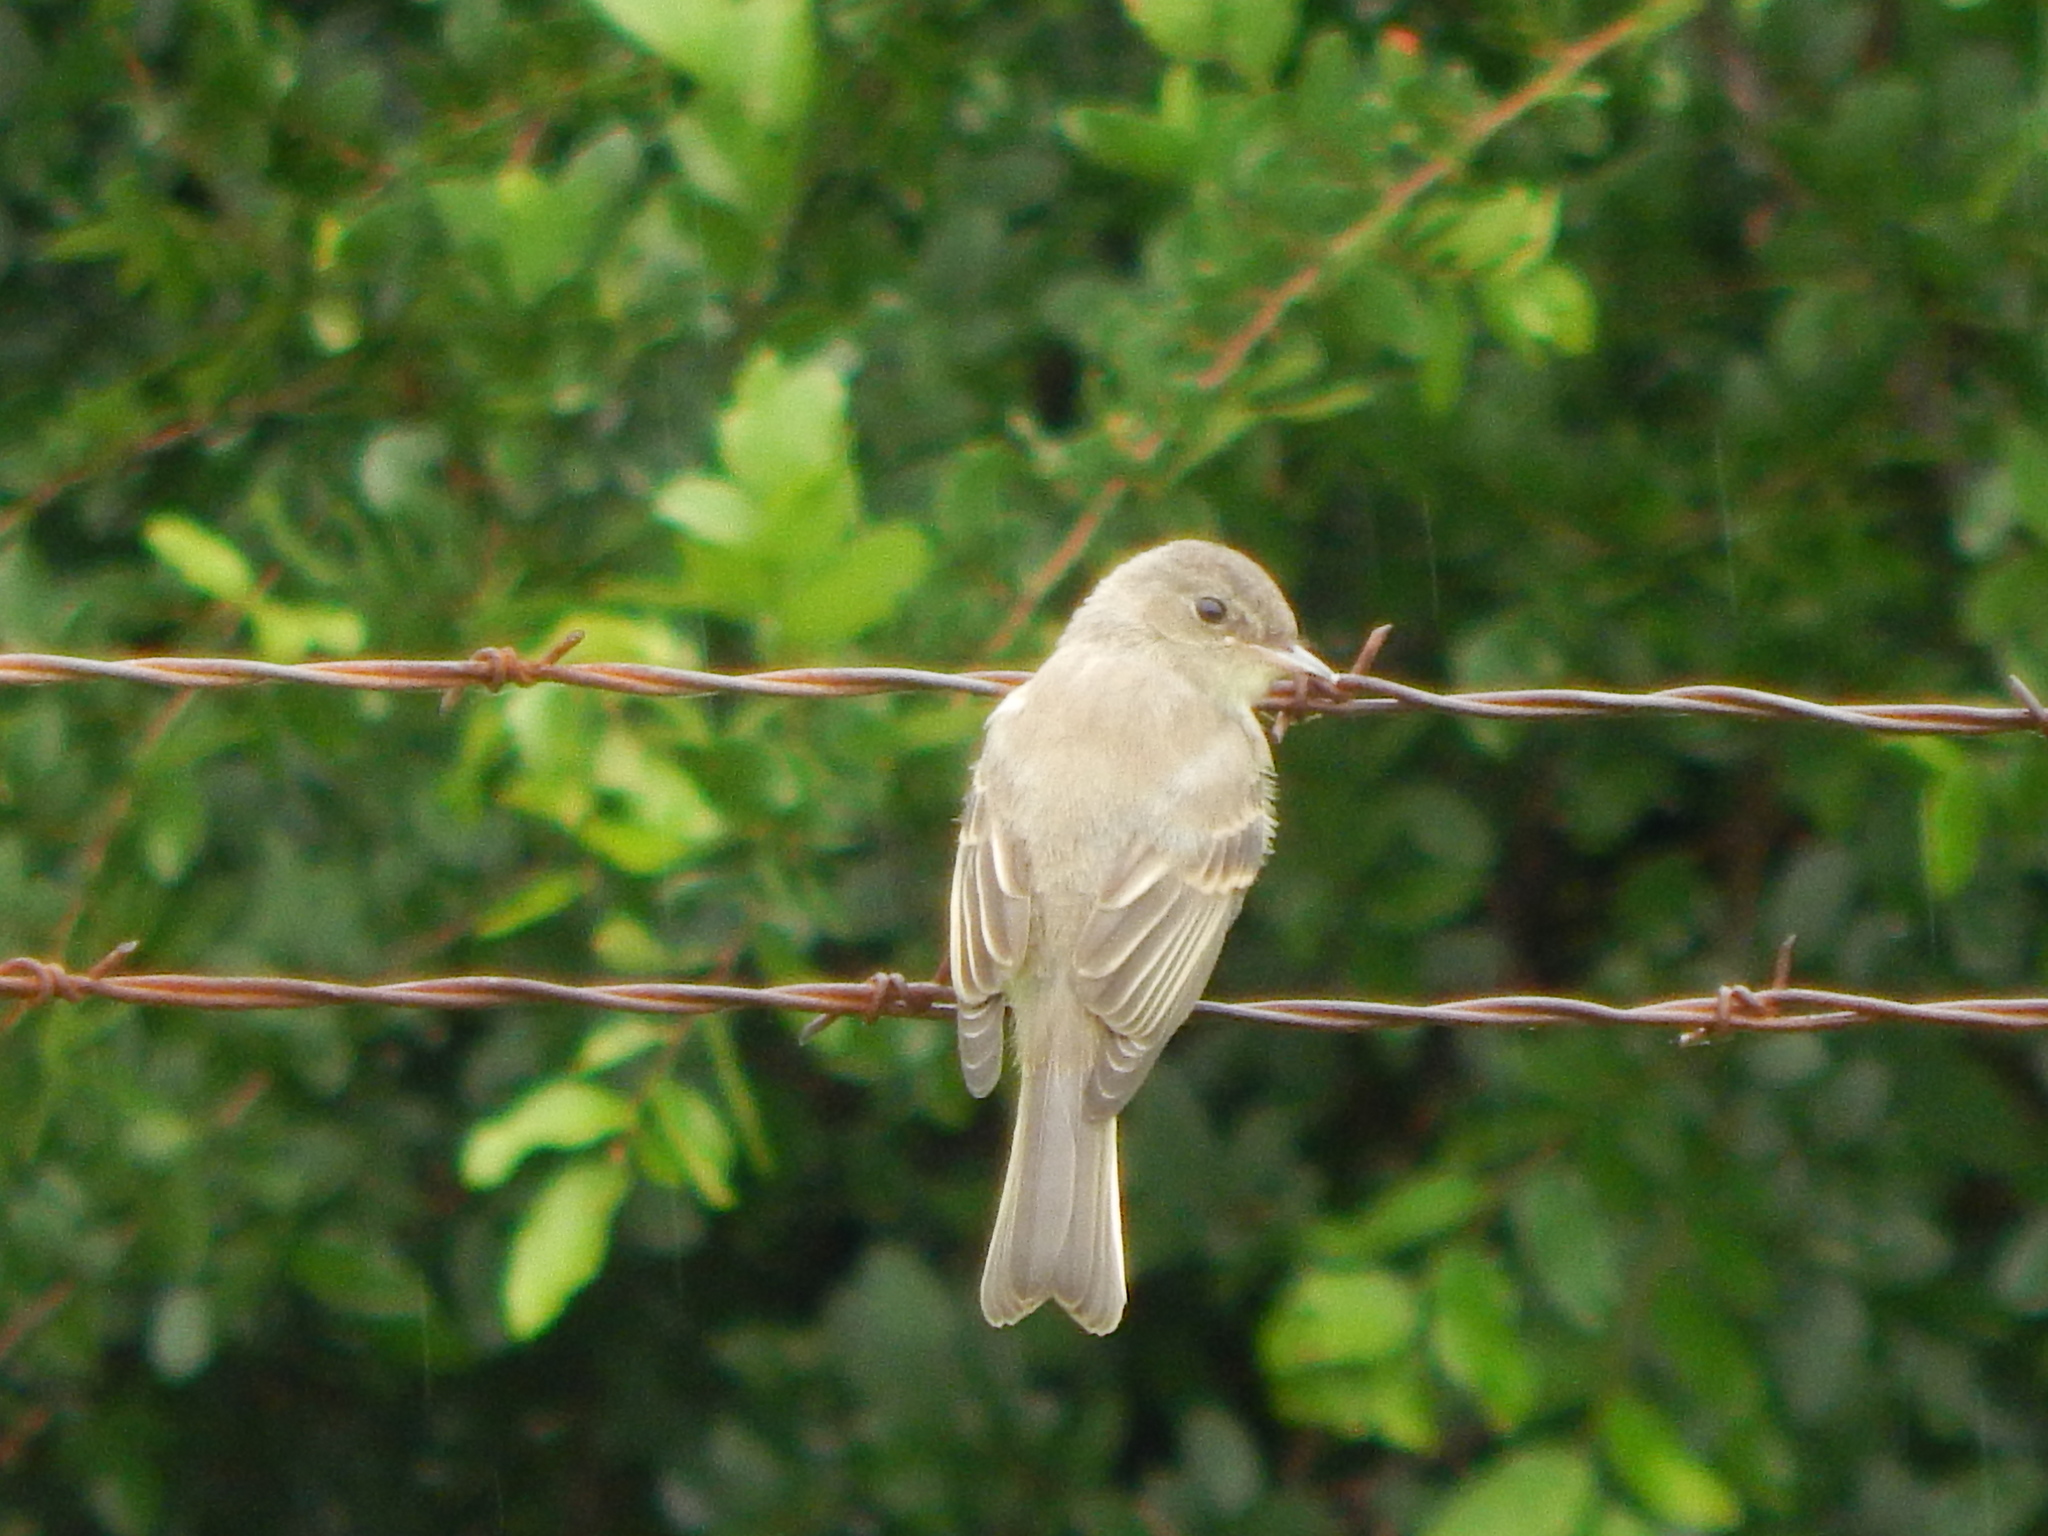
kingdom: Animalia
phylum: Chordata
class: Aves
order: Passeriformes
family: Tyrannidae
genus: Contopus
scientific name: Contopus virens
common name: Eastern wood-pewee
